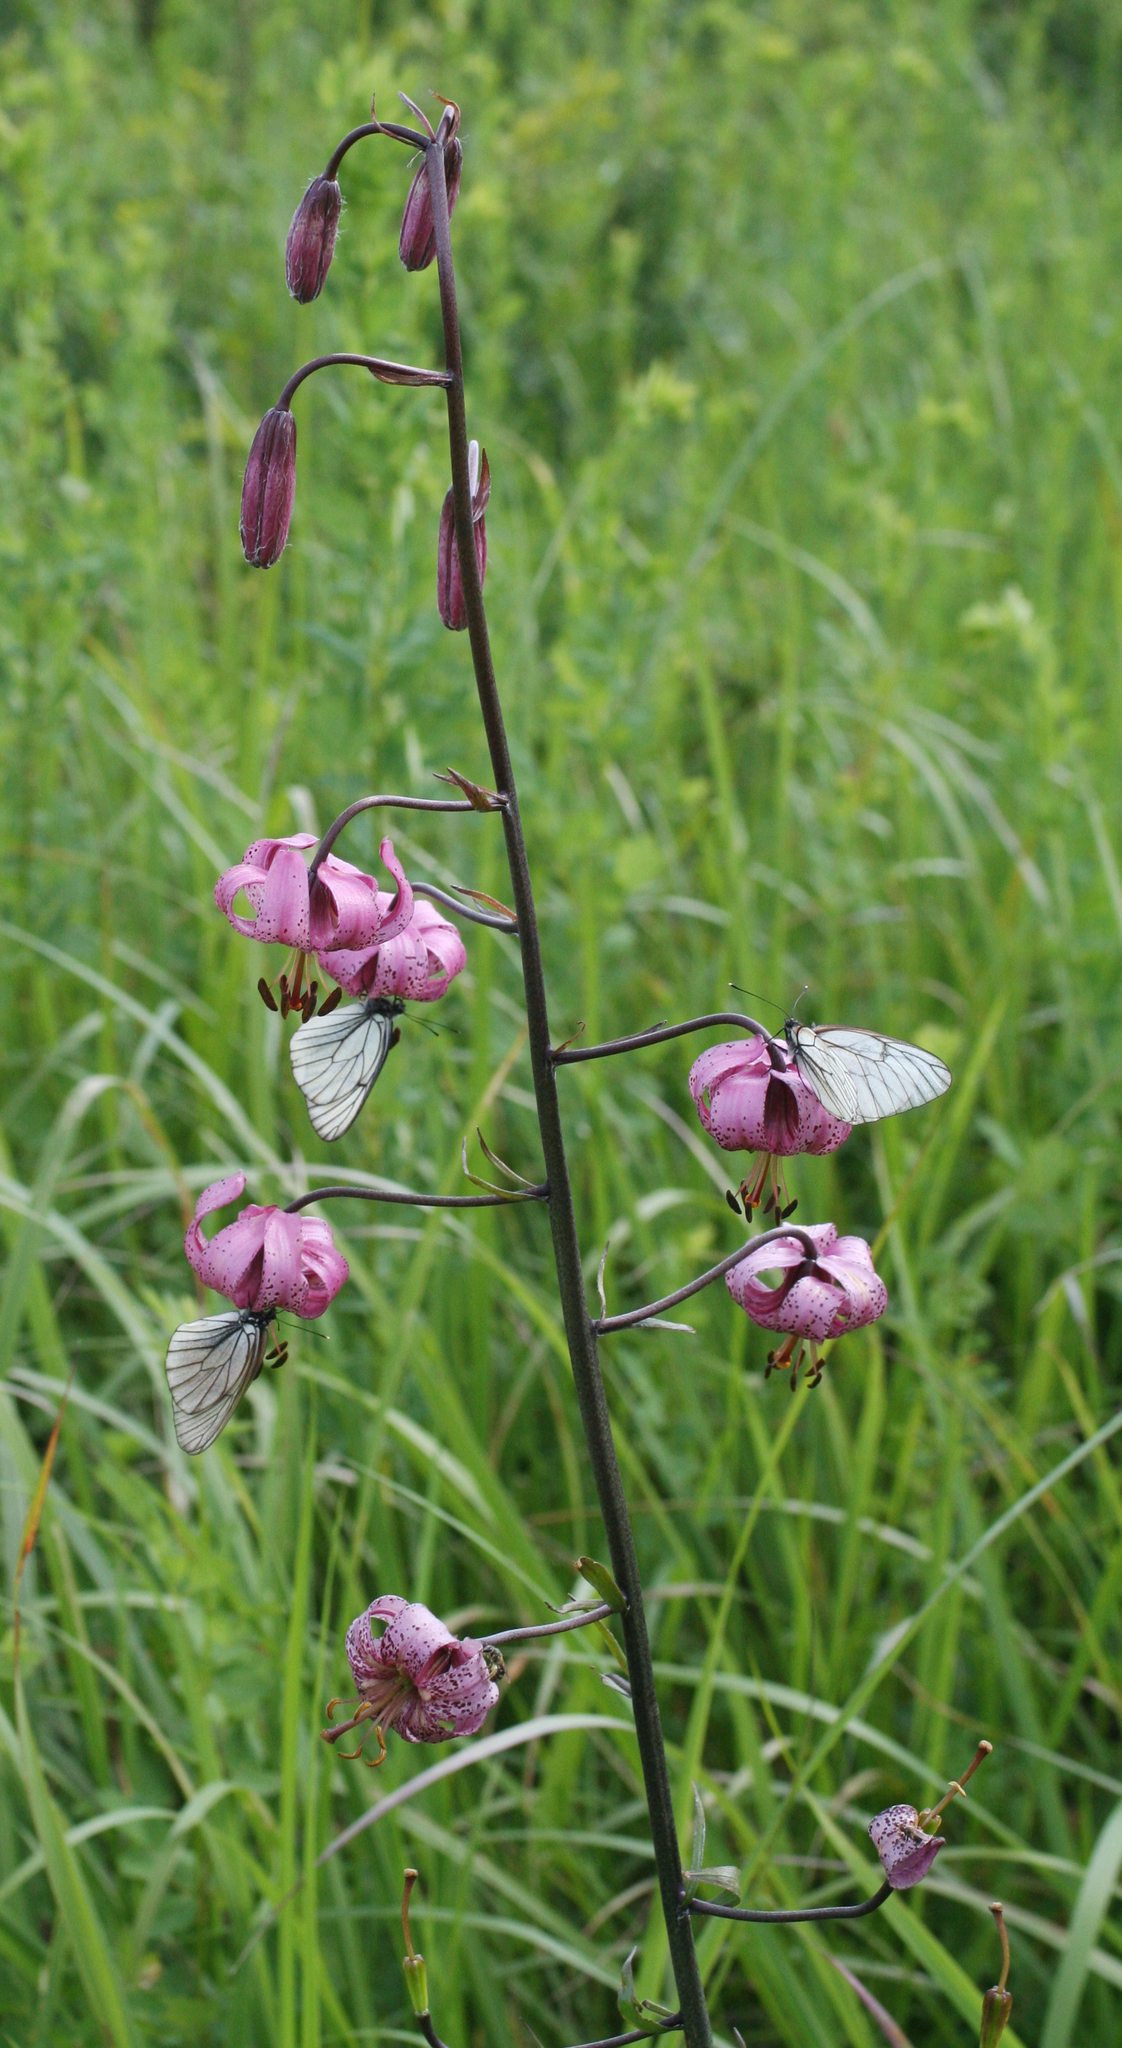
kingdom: Plantae
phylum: Tracheophyta
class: Liliopsida
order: Liliales
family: Liliaceae
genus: Lilium
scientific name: Lilium martagon
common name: Martagon lily
